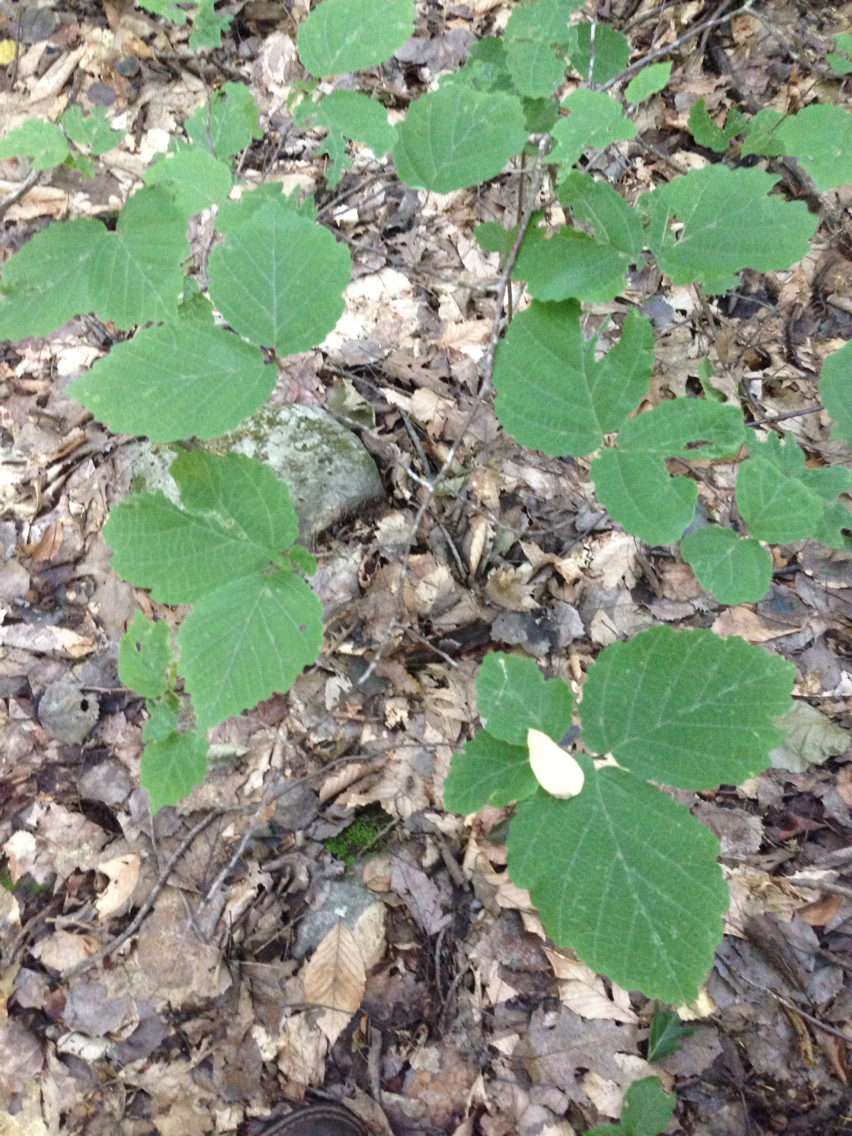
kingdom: Plantae
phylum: Tracheophyta
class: Magnoliopsida
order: Saxifragales
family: Hamamelidaceae
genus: Hamamelis
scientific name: Hamamelis virginiana
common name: Witch-hazel
